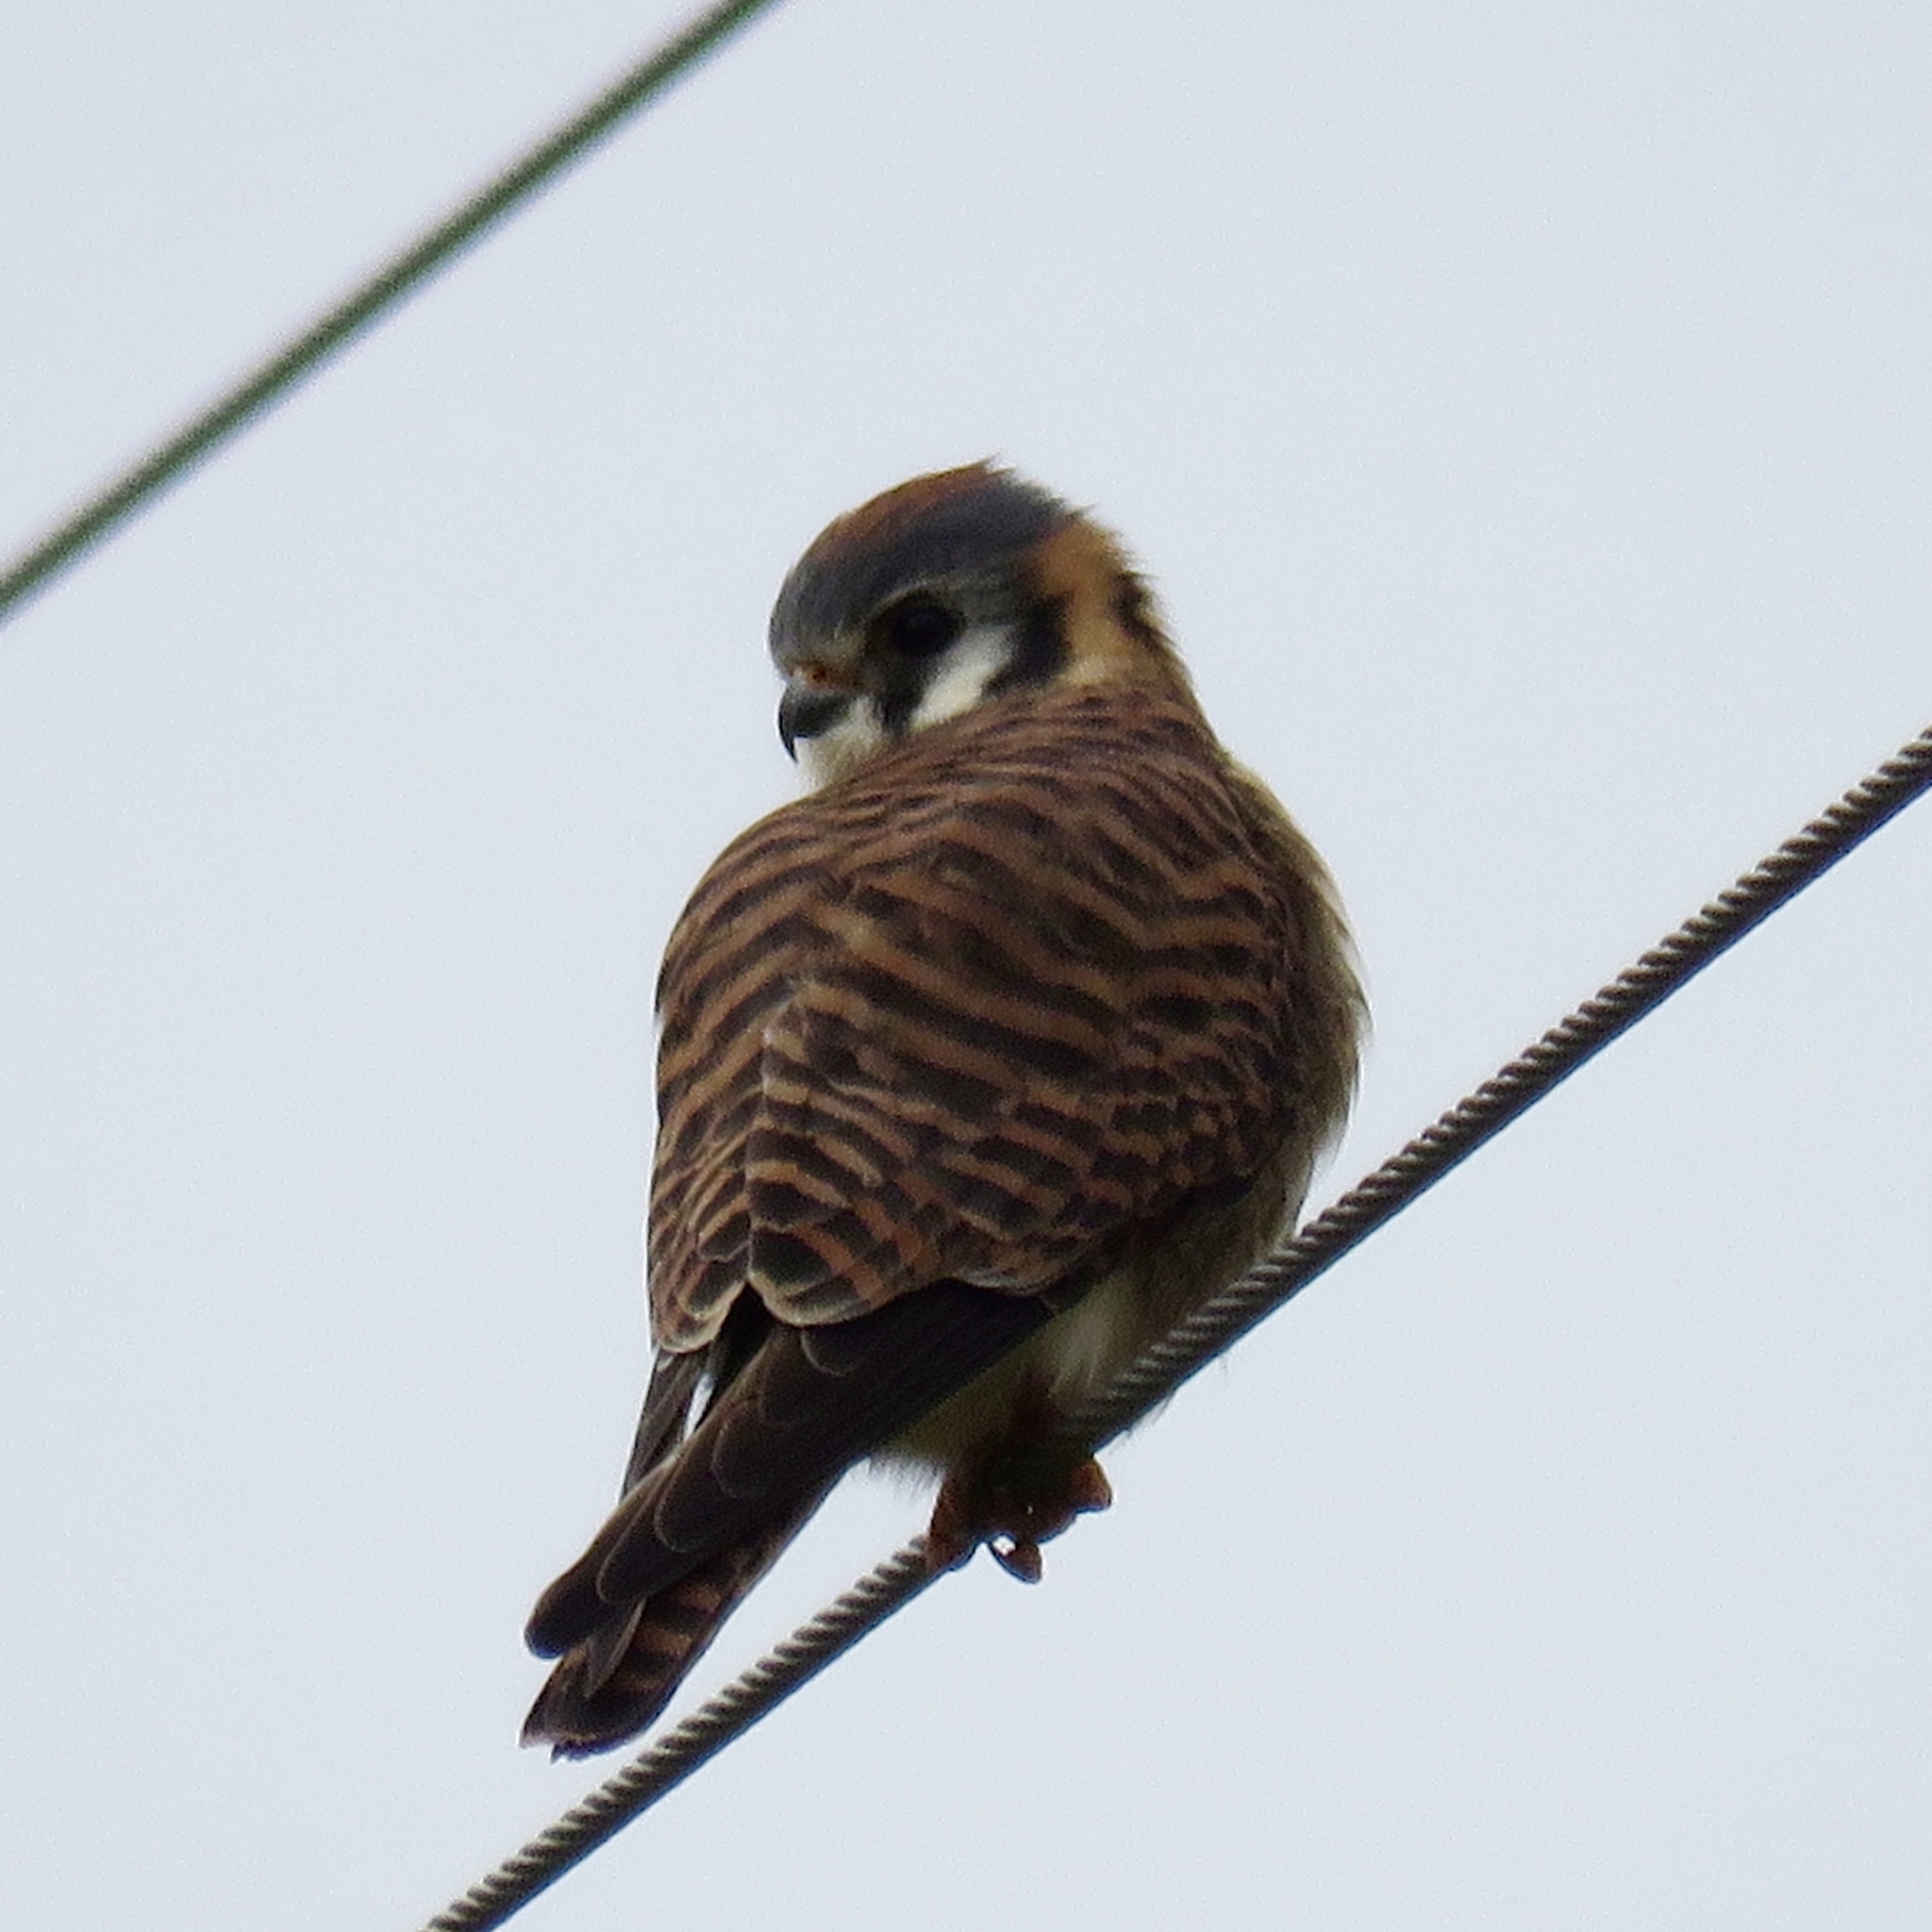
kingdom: Animalia
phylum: Chordata
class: Aves
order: Falconiformes
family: Falconidae
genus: Falco
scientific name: Falco sparverius
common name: American kestrel
